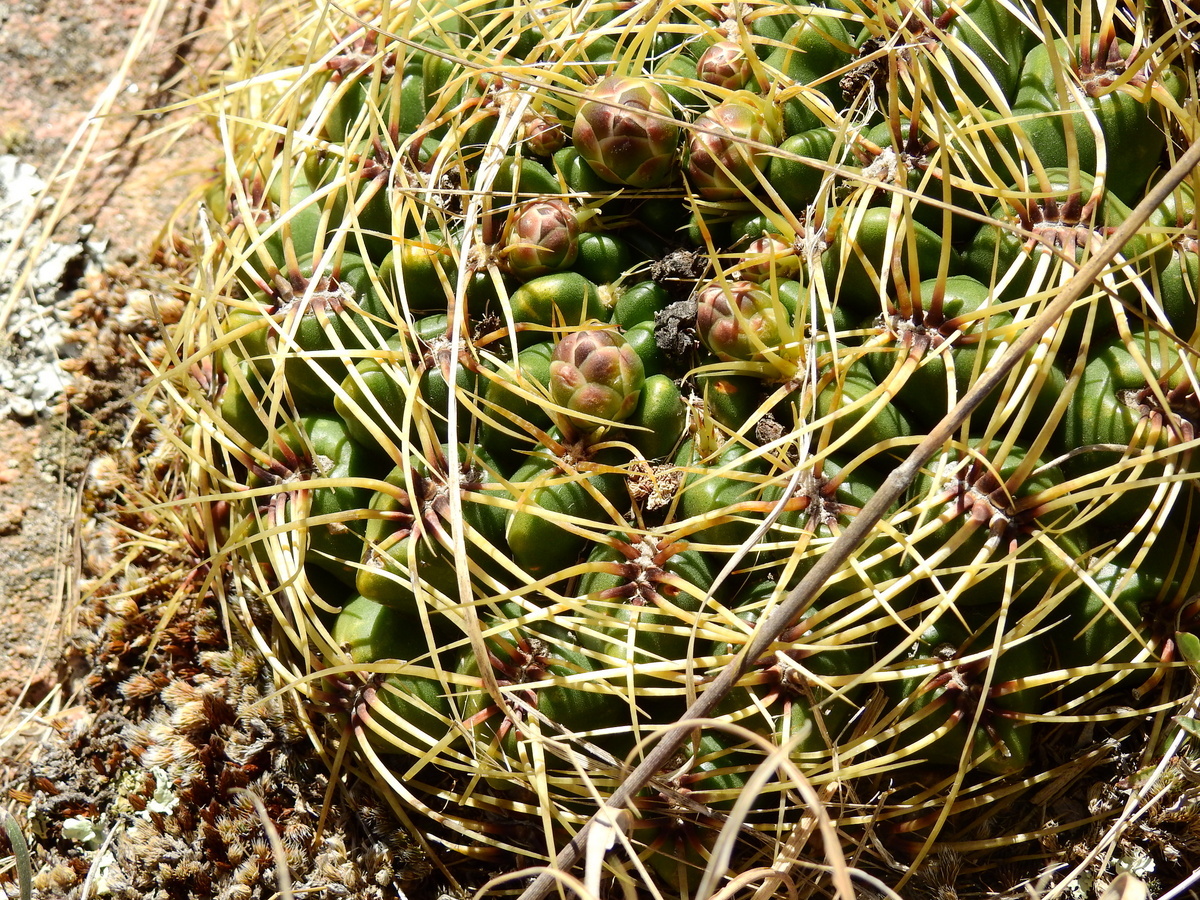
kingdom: Plantae
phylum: Tracheophyta
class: Magnoliopsida
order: Caryophyllales
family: Cactaceae
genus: Gymnocalycium
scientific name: Gymnocalycium monvillei
